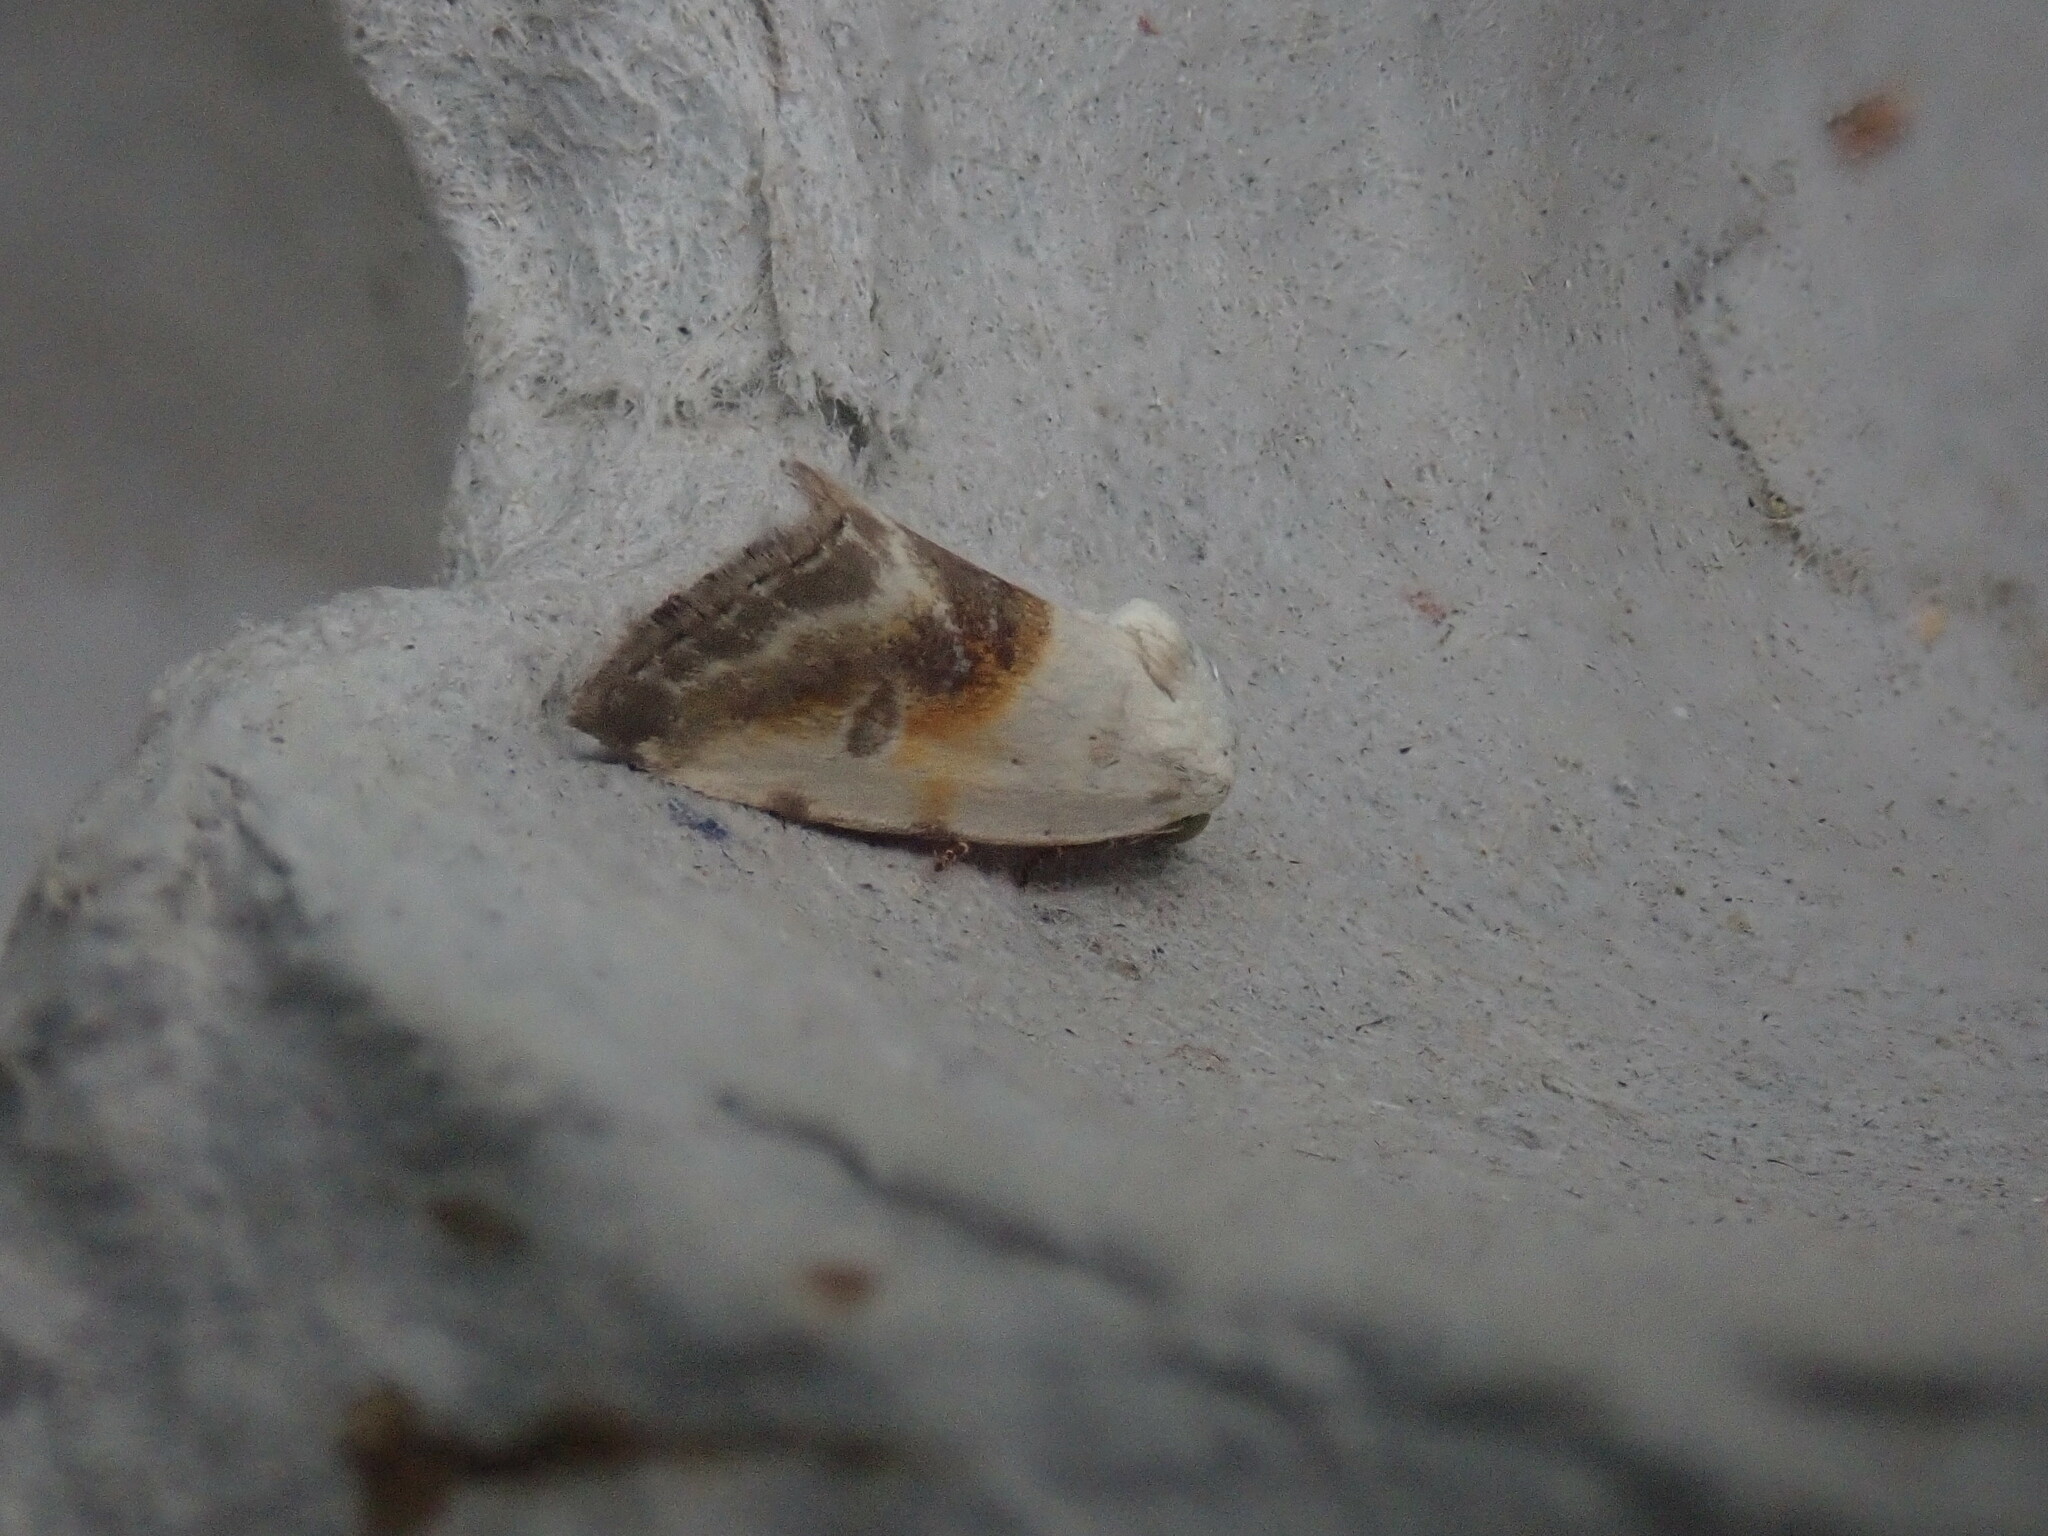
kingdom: Animalia
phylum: Arthropoda
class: Insecta
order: Lepidoptera
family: Noctuidae
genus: Acontia
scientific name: Acontia candefacta
